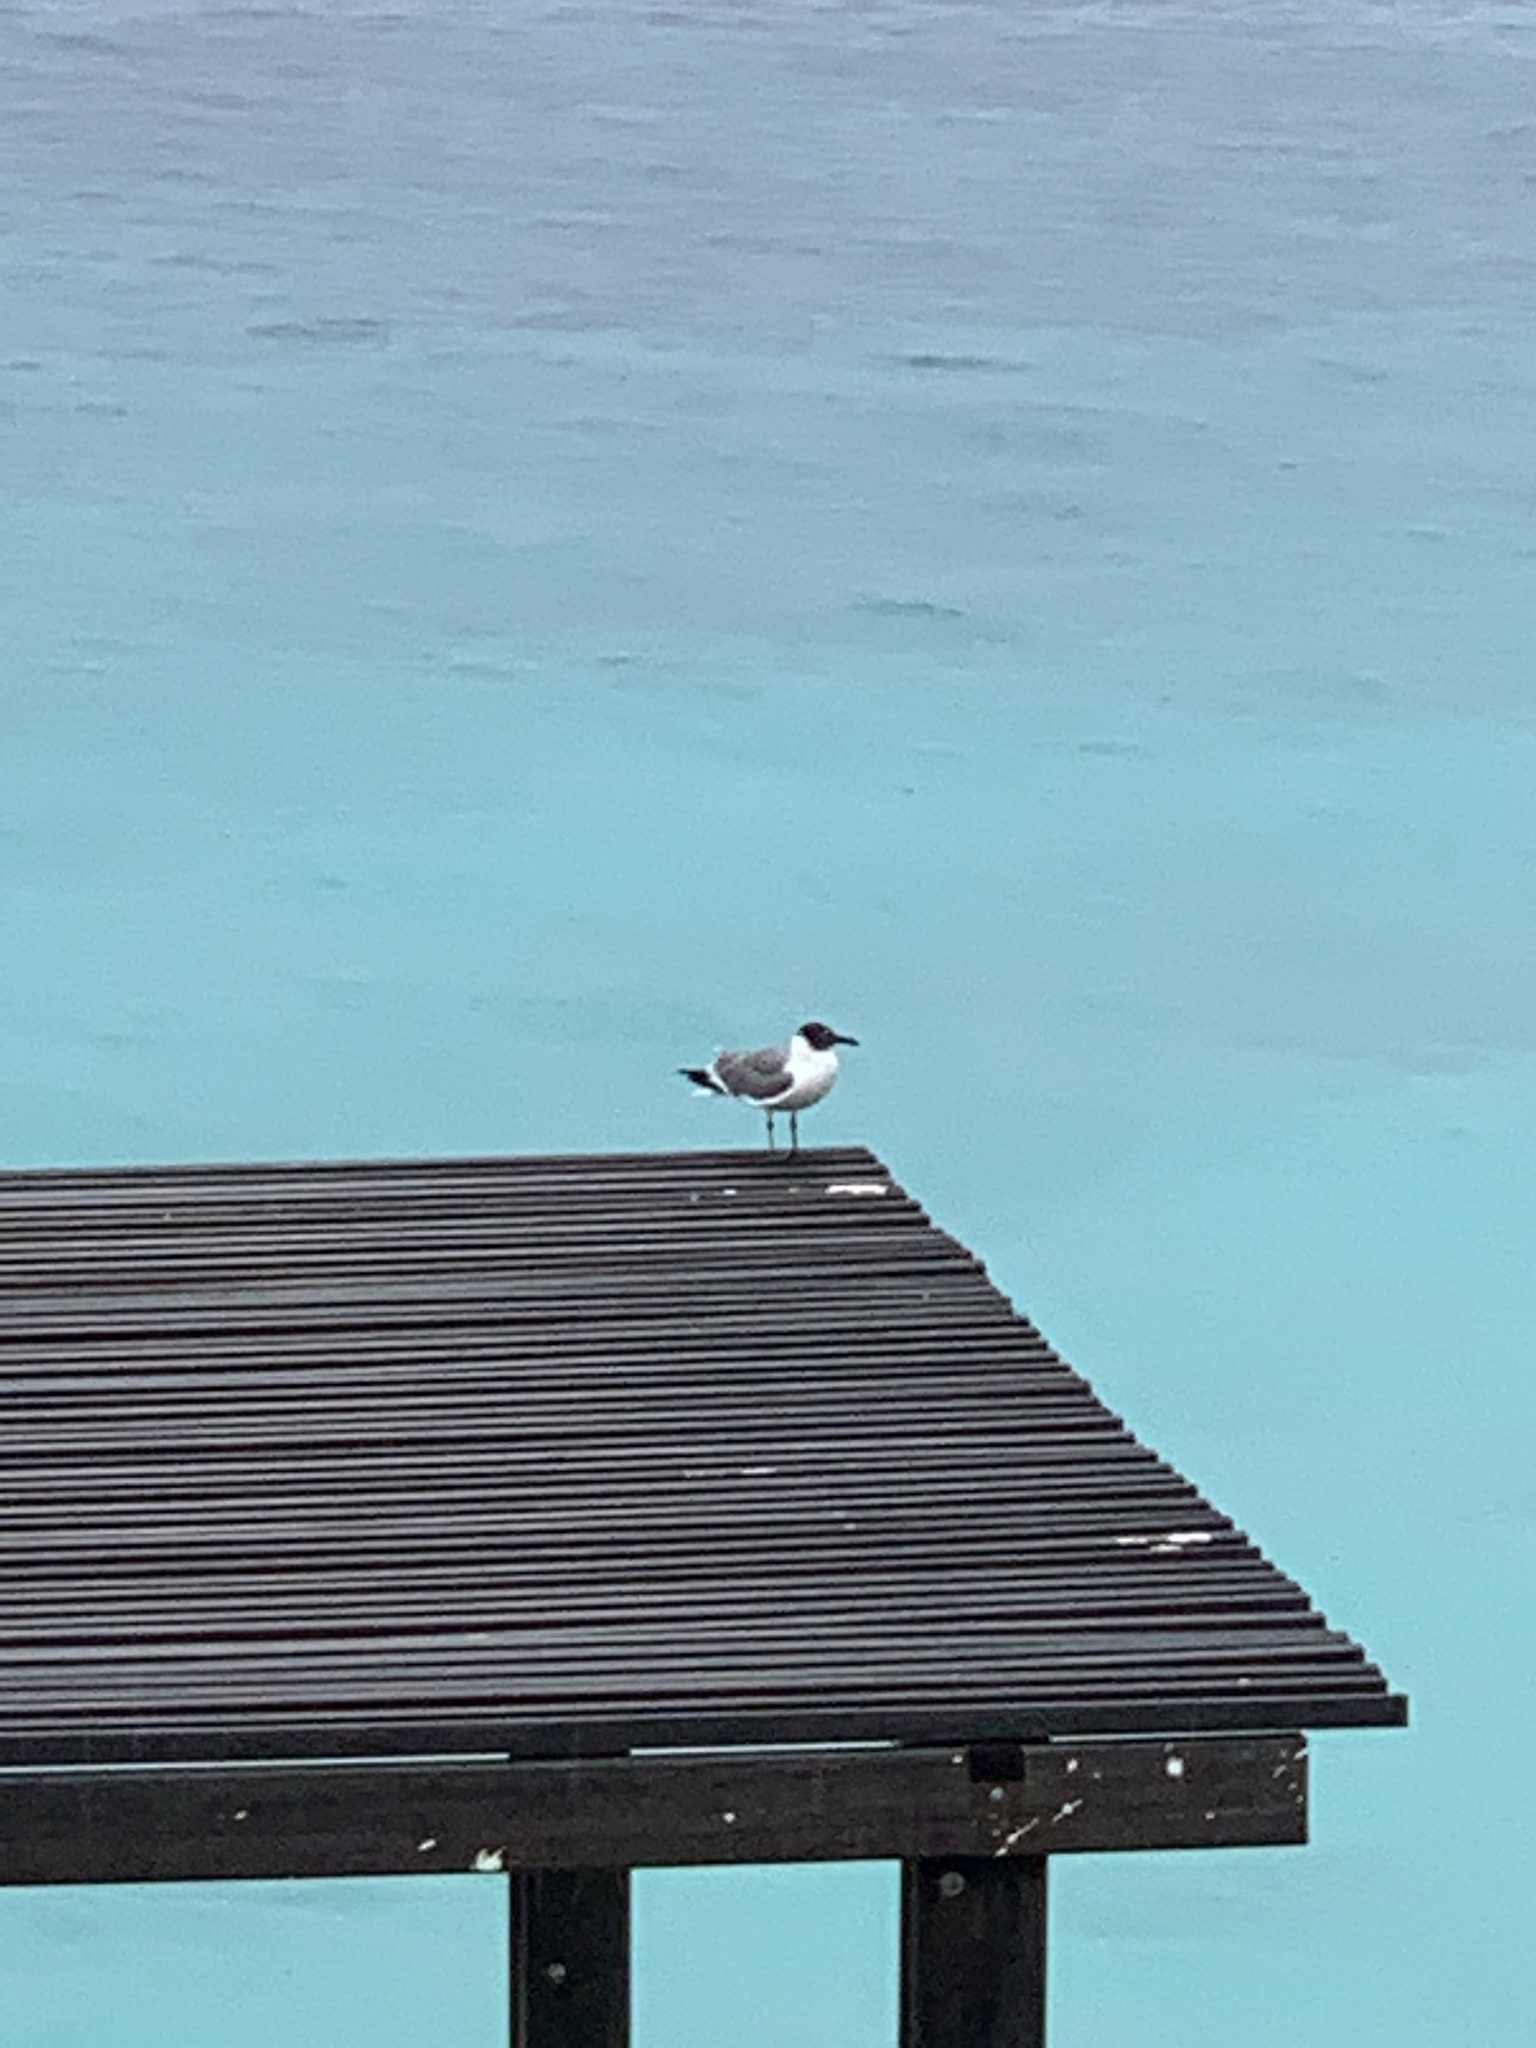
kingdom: Animalia
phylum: Chordata
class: Aves
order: Charadriiformes
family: Laridae
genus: Leucophaeus
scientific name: Leucophaeus atricilla
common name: Laughing gull
